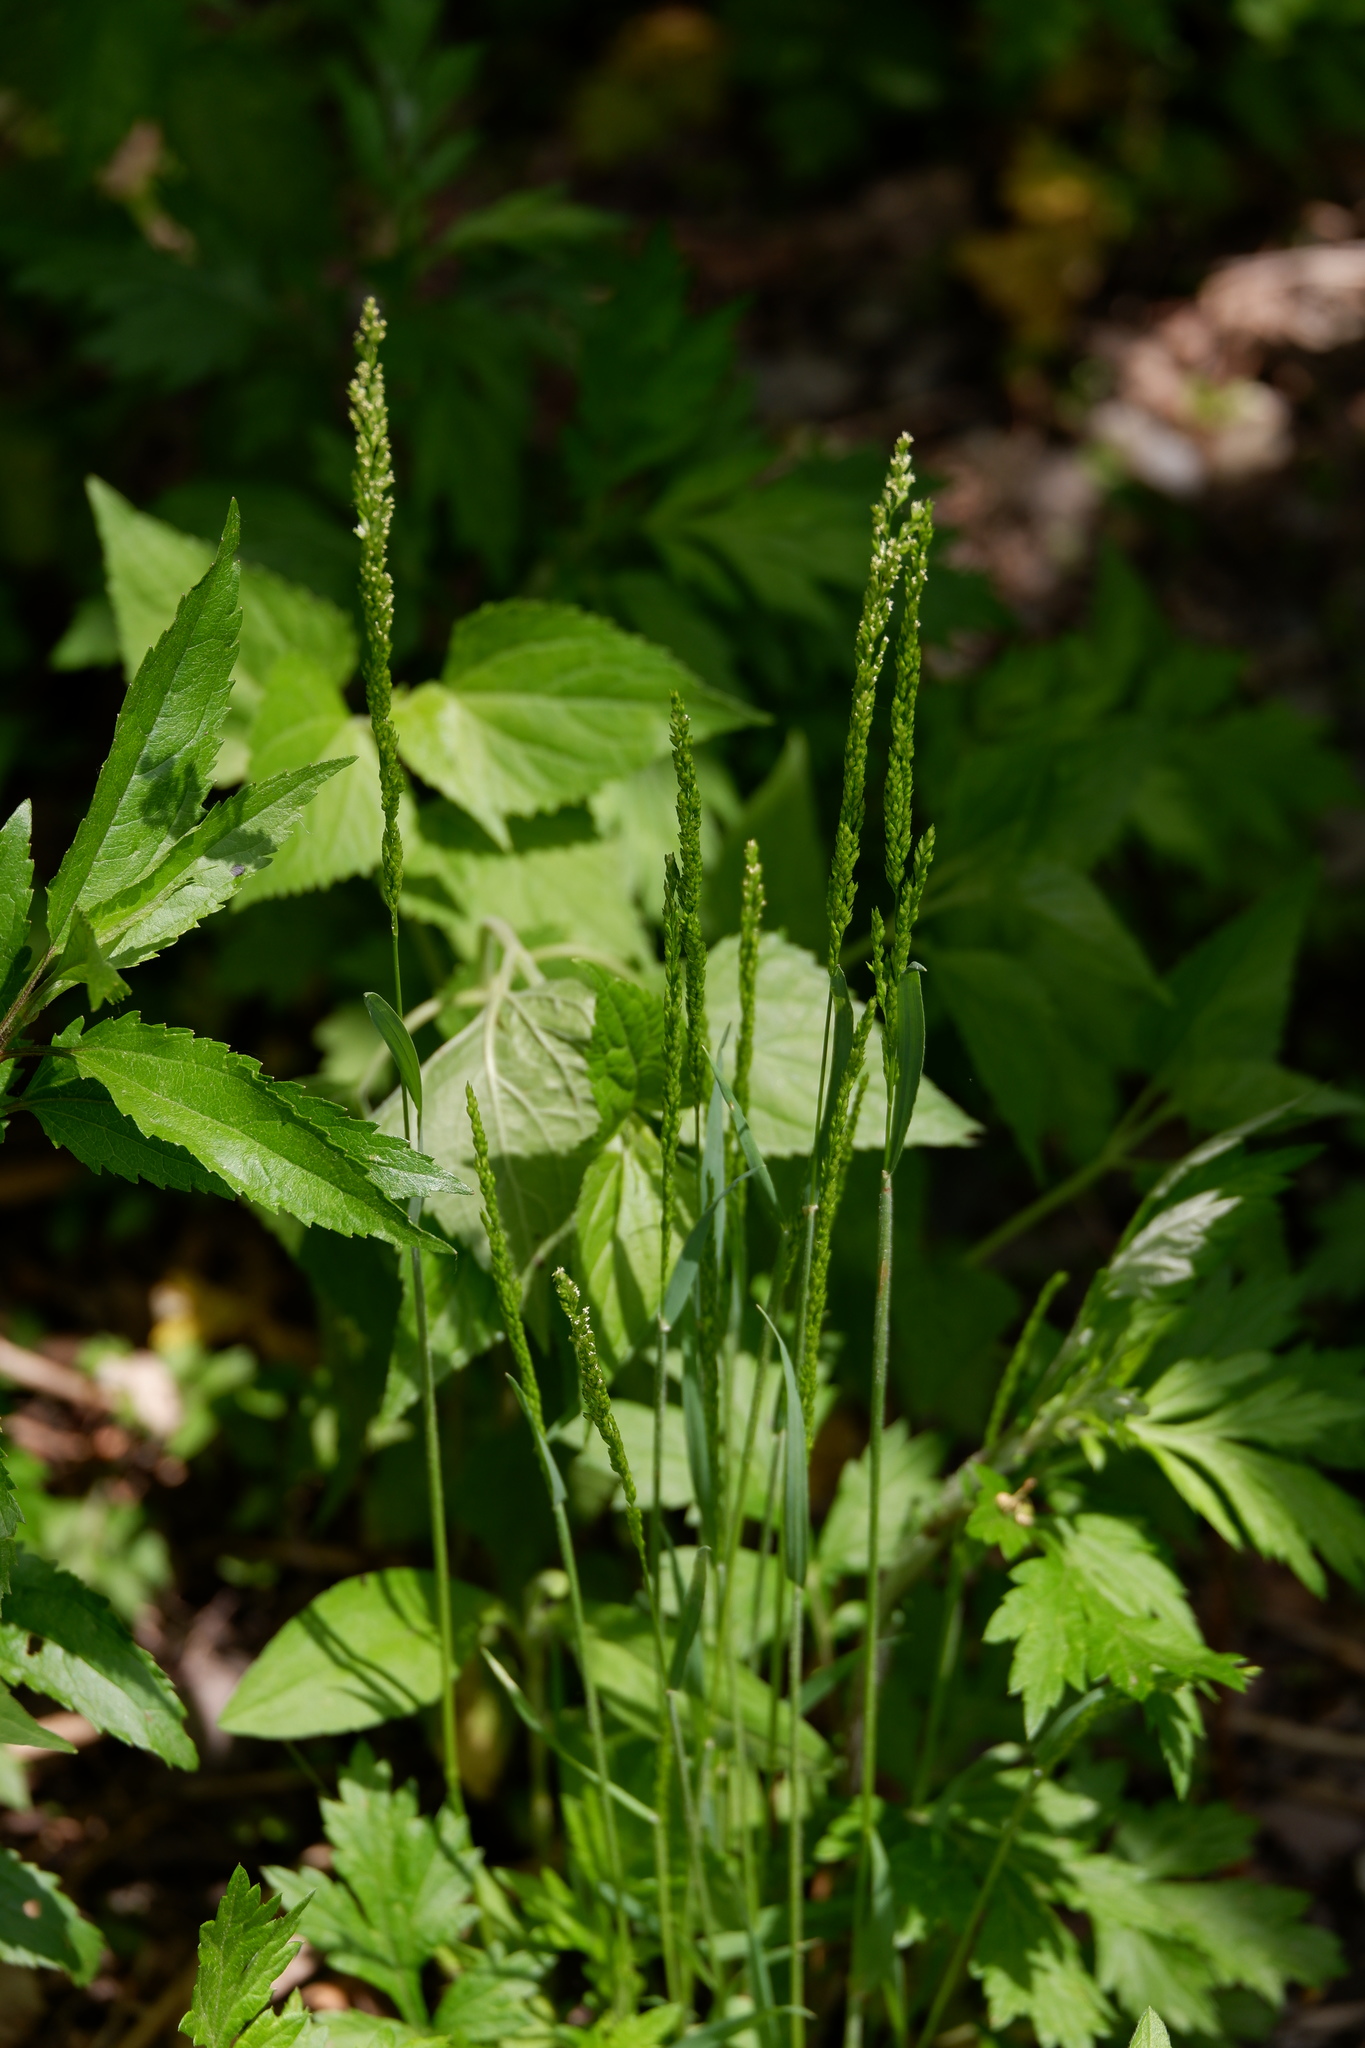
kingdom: Plantae
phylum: Tracheophyta
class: Liliopsida
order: Poales
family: Poaceae
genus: Sphenopholis
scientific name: Sphenopholis obtusata
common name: Prairie grass
